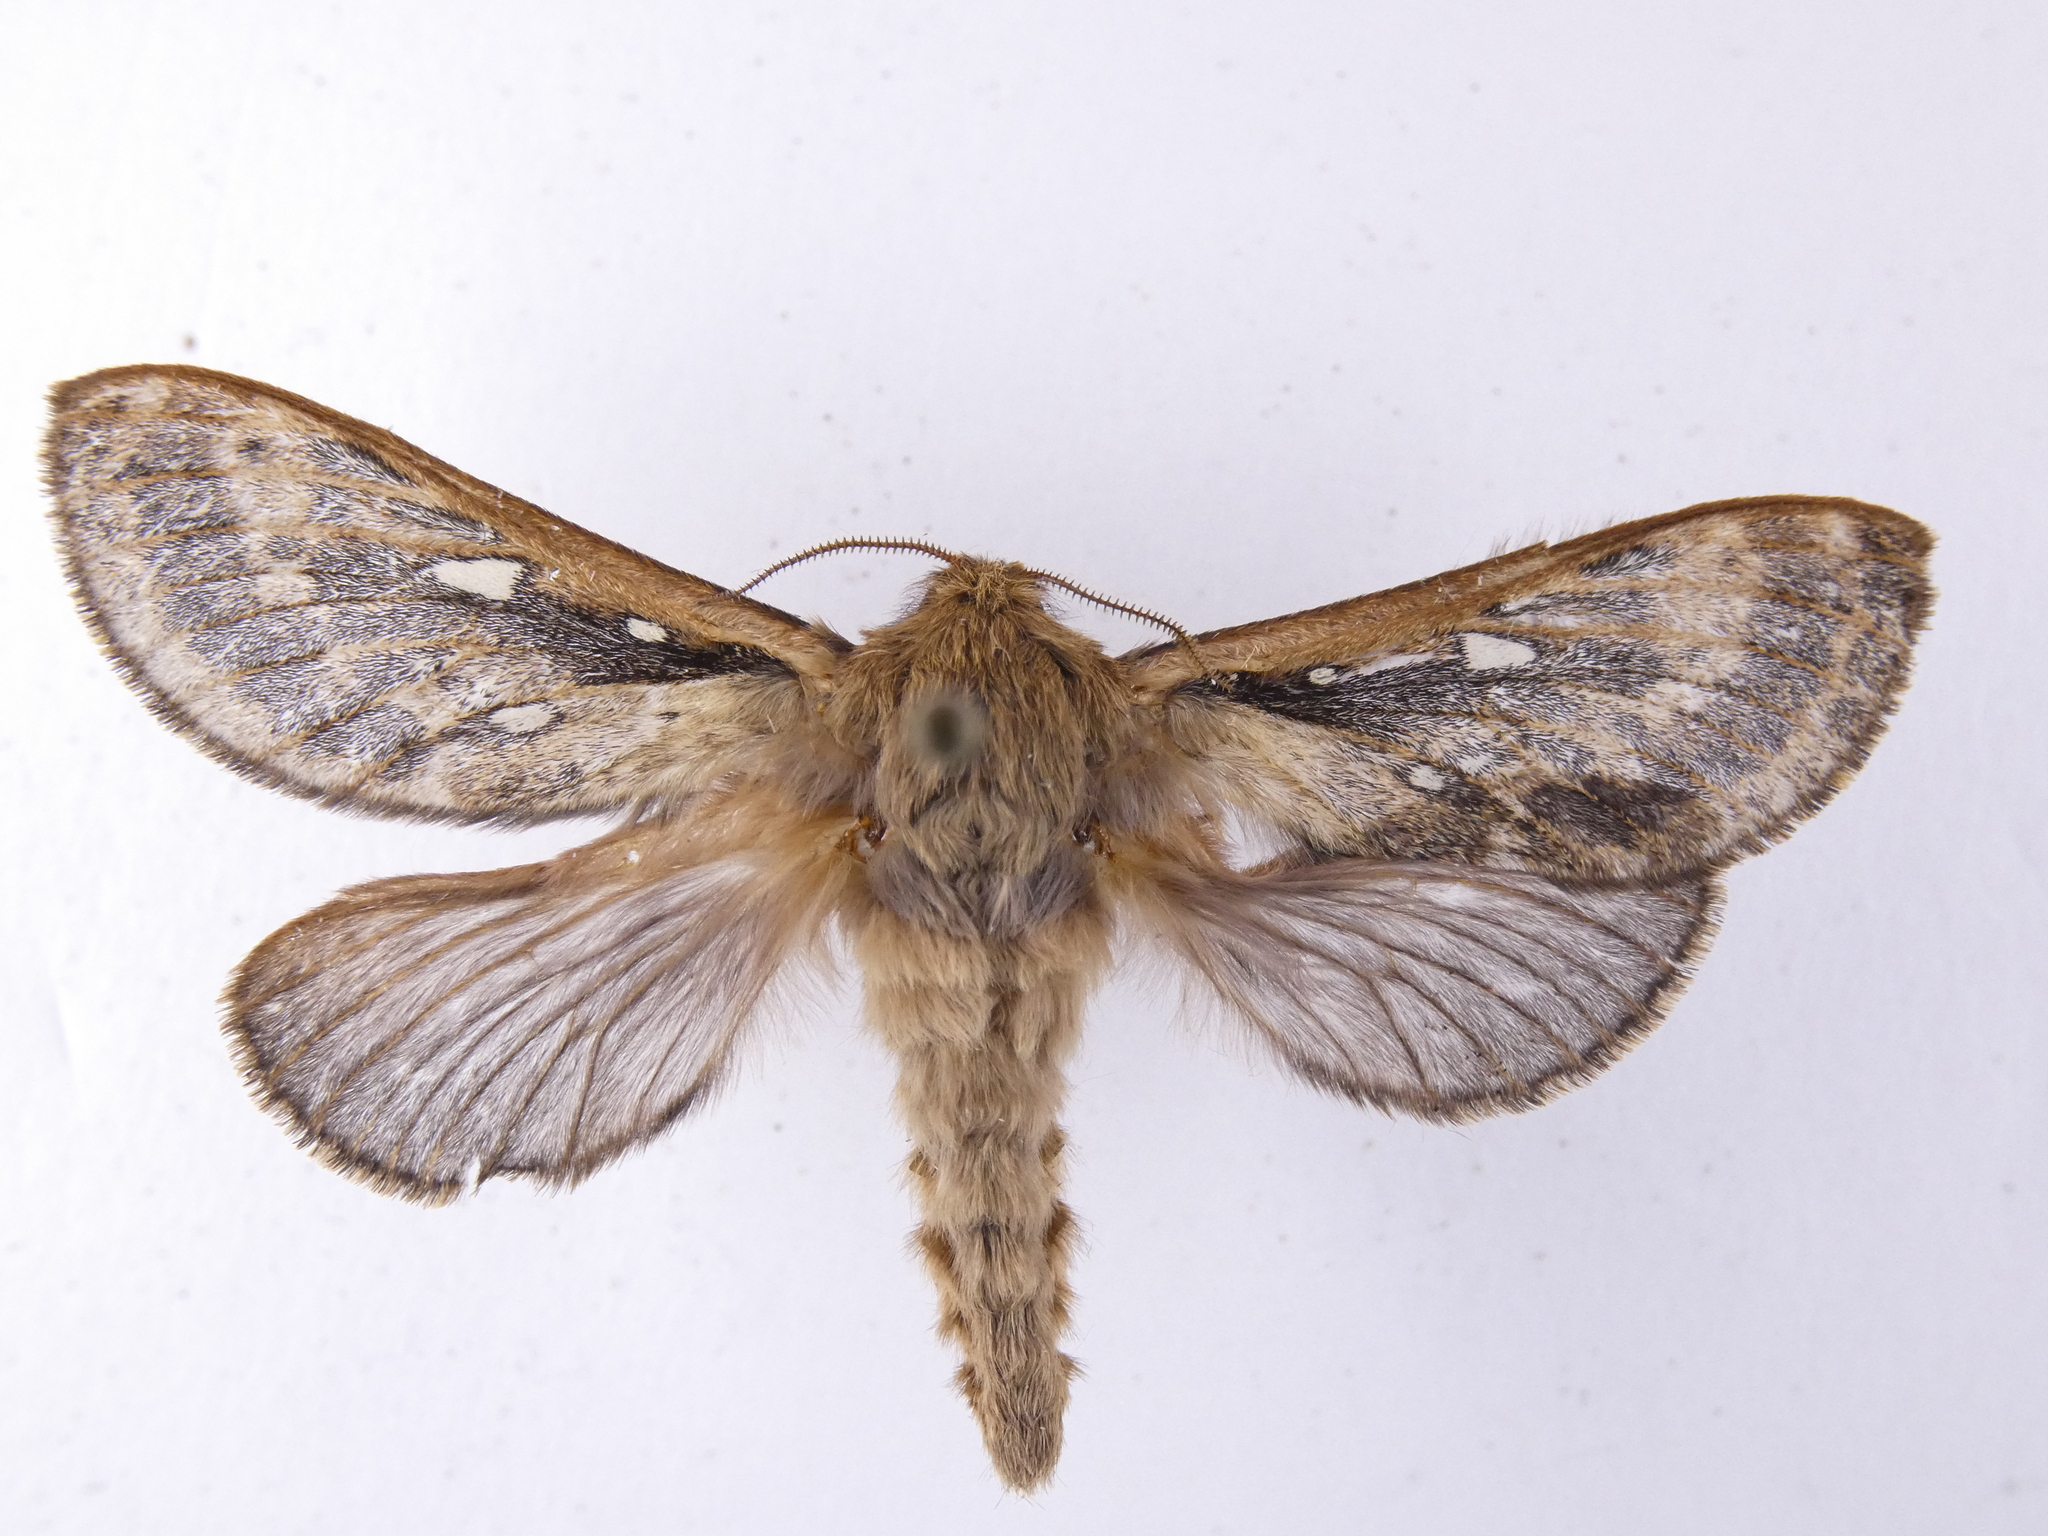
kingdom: Animalia
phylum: Arthropoda
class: Insecta
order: Lepidoptera
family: Hepialidae
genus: Wiseana
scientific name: Wiseana cervinata
